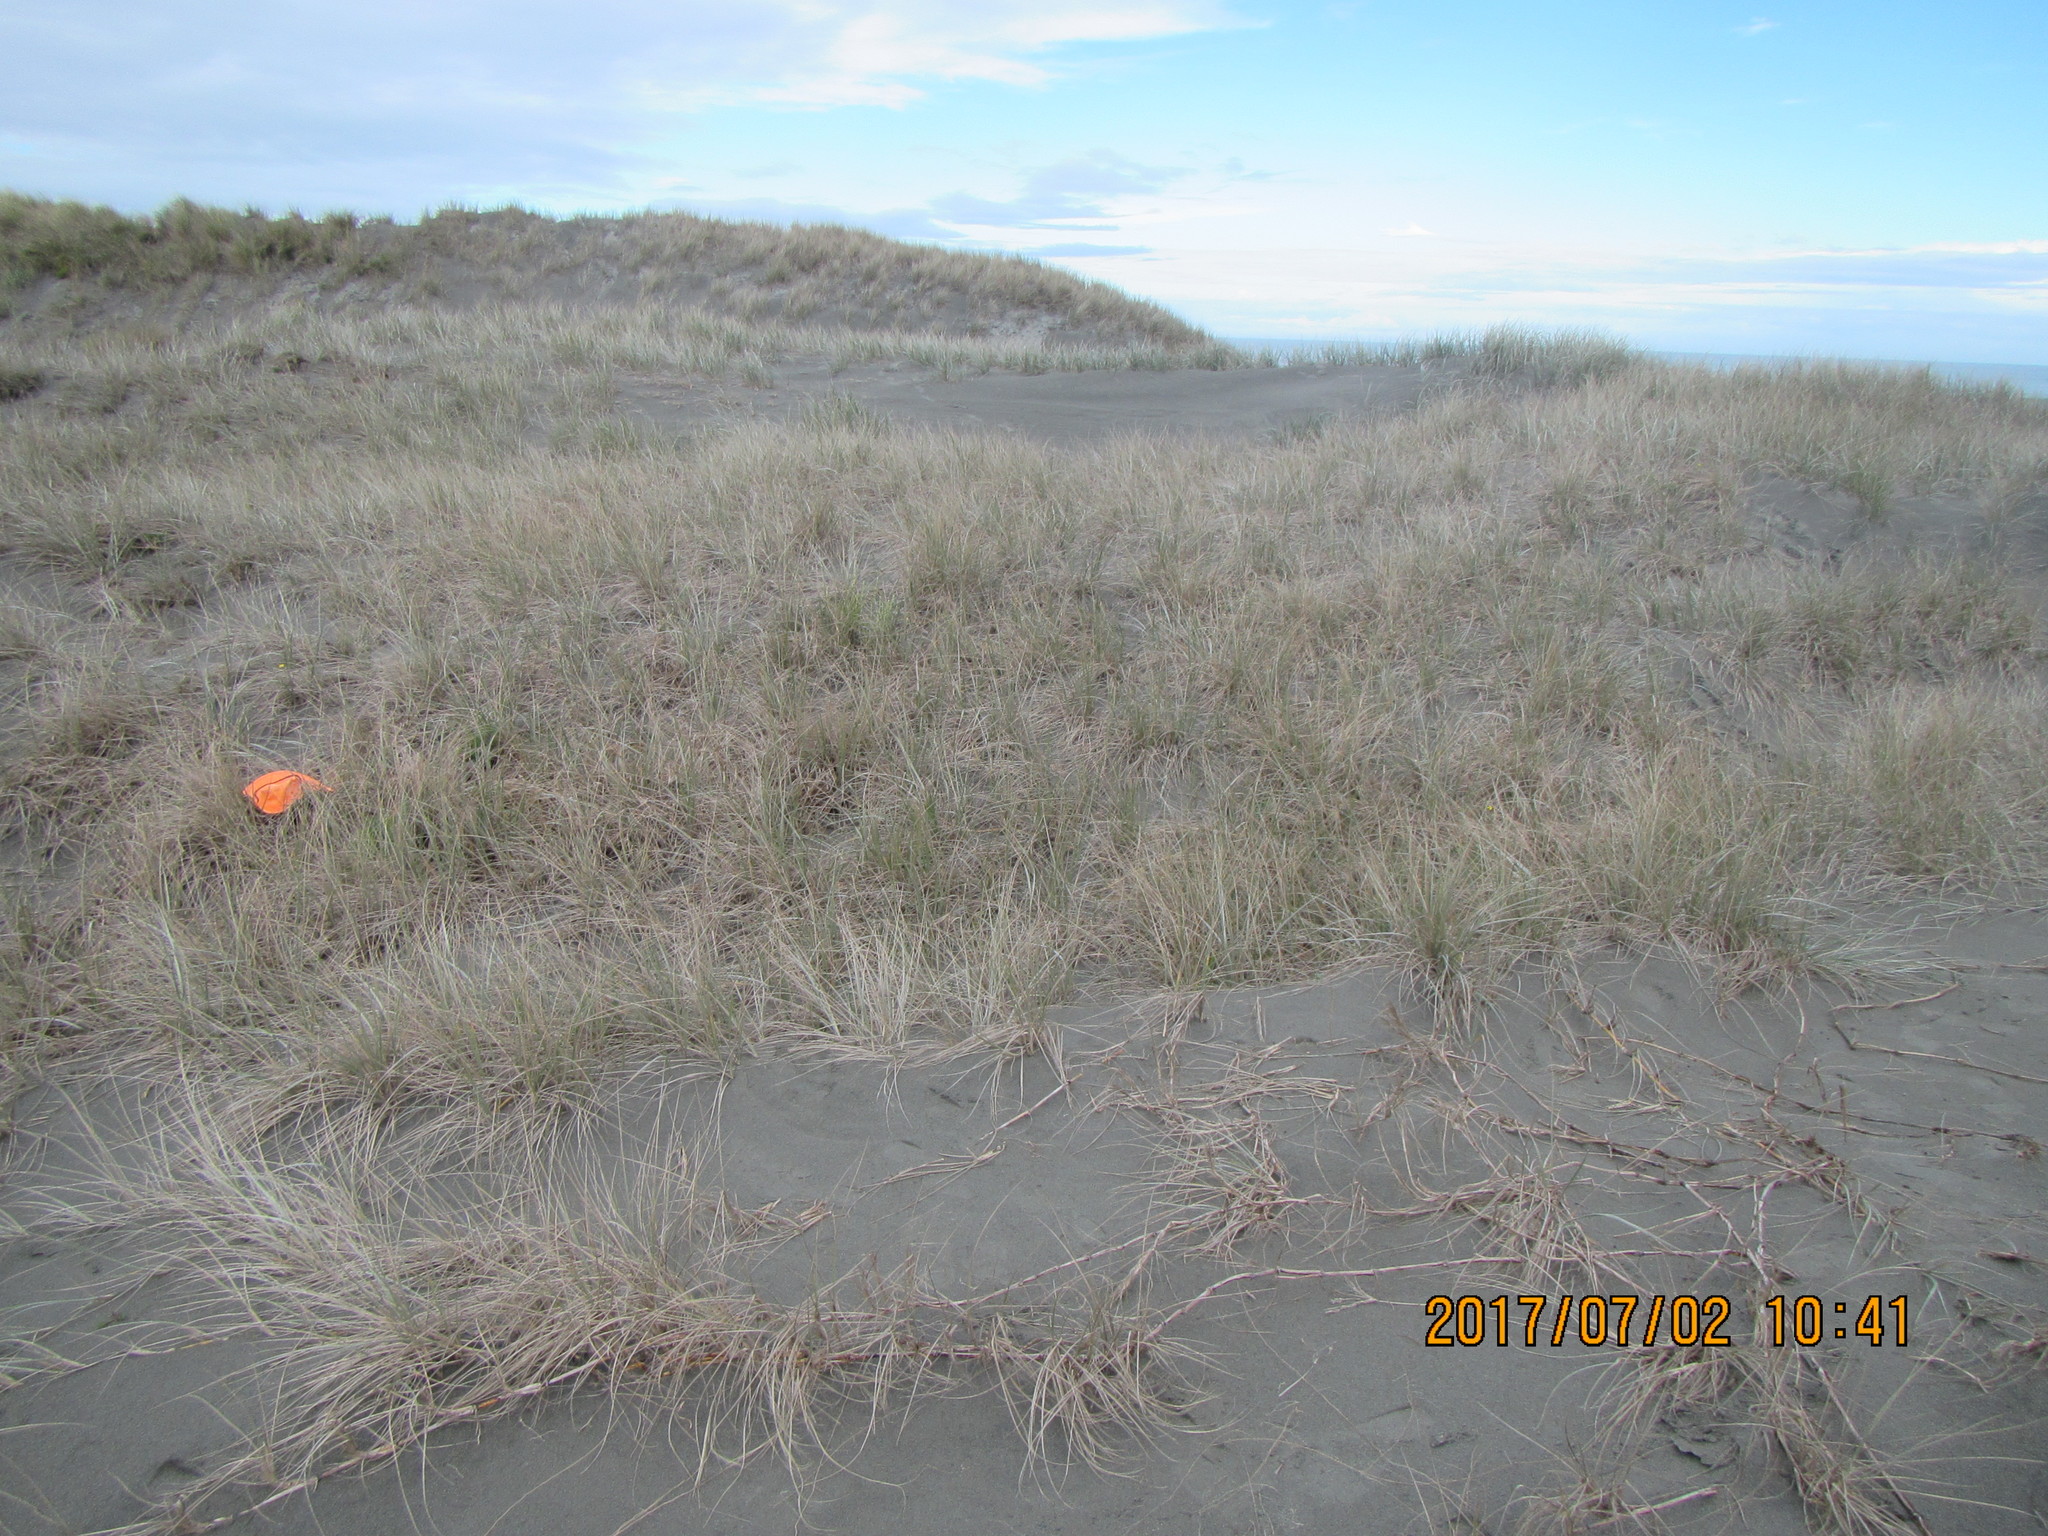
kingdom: Animalia
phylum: Arthropoda
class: Arachnida
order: Araneae
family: Oxyopidae
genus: Oxyopes
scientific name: Oxyopes gracilipes
